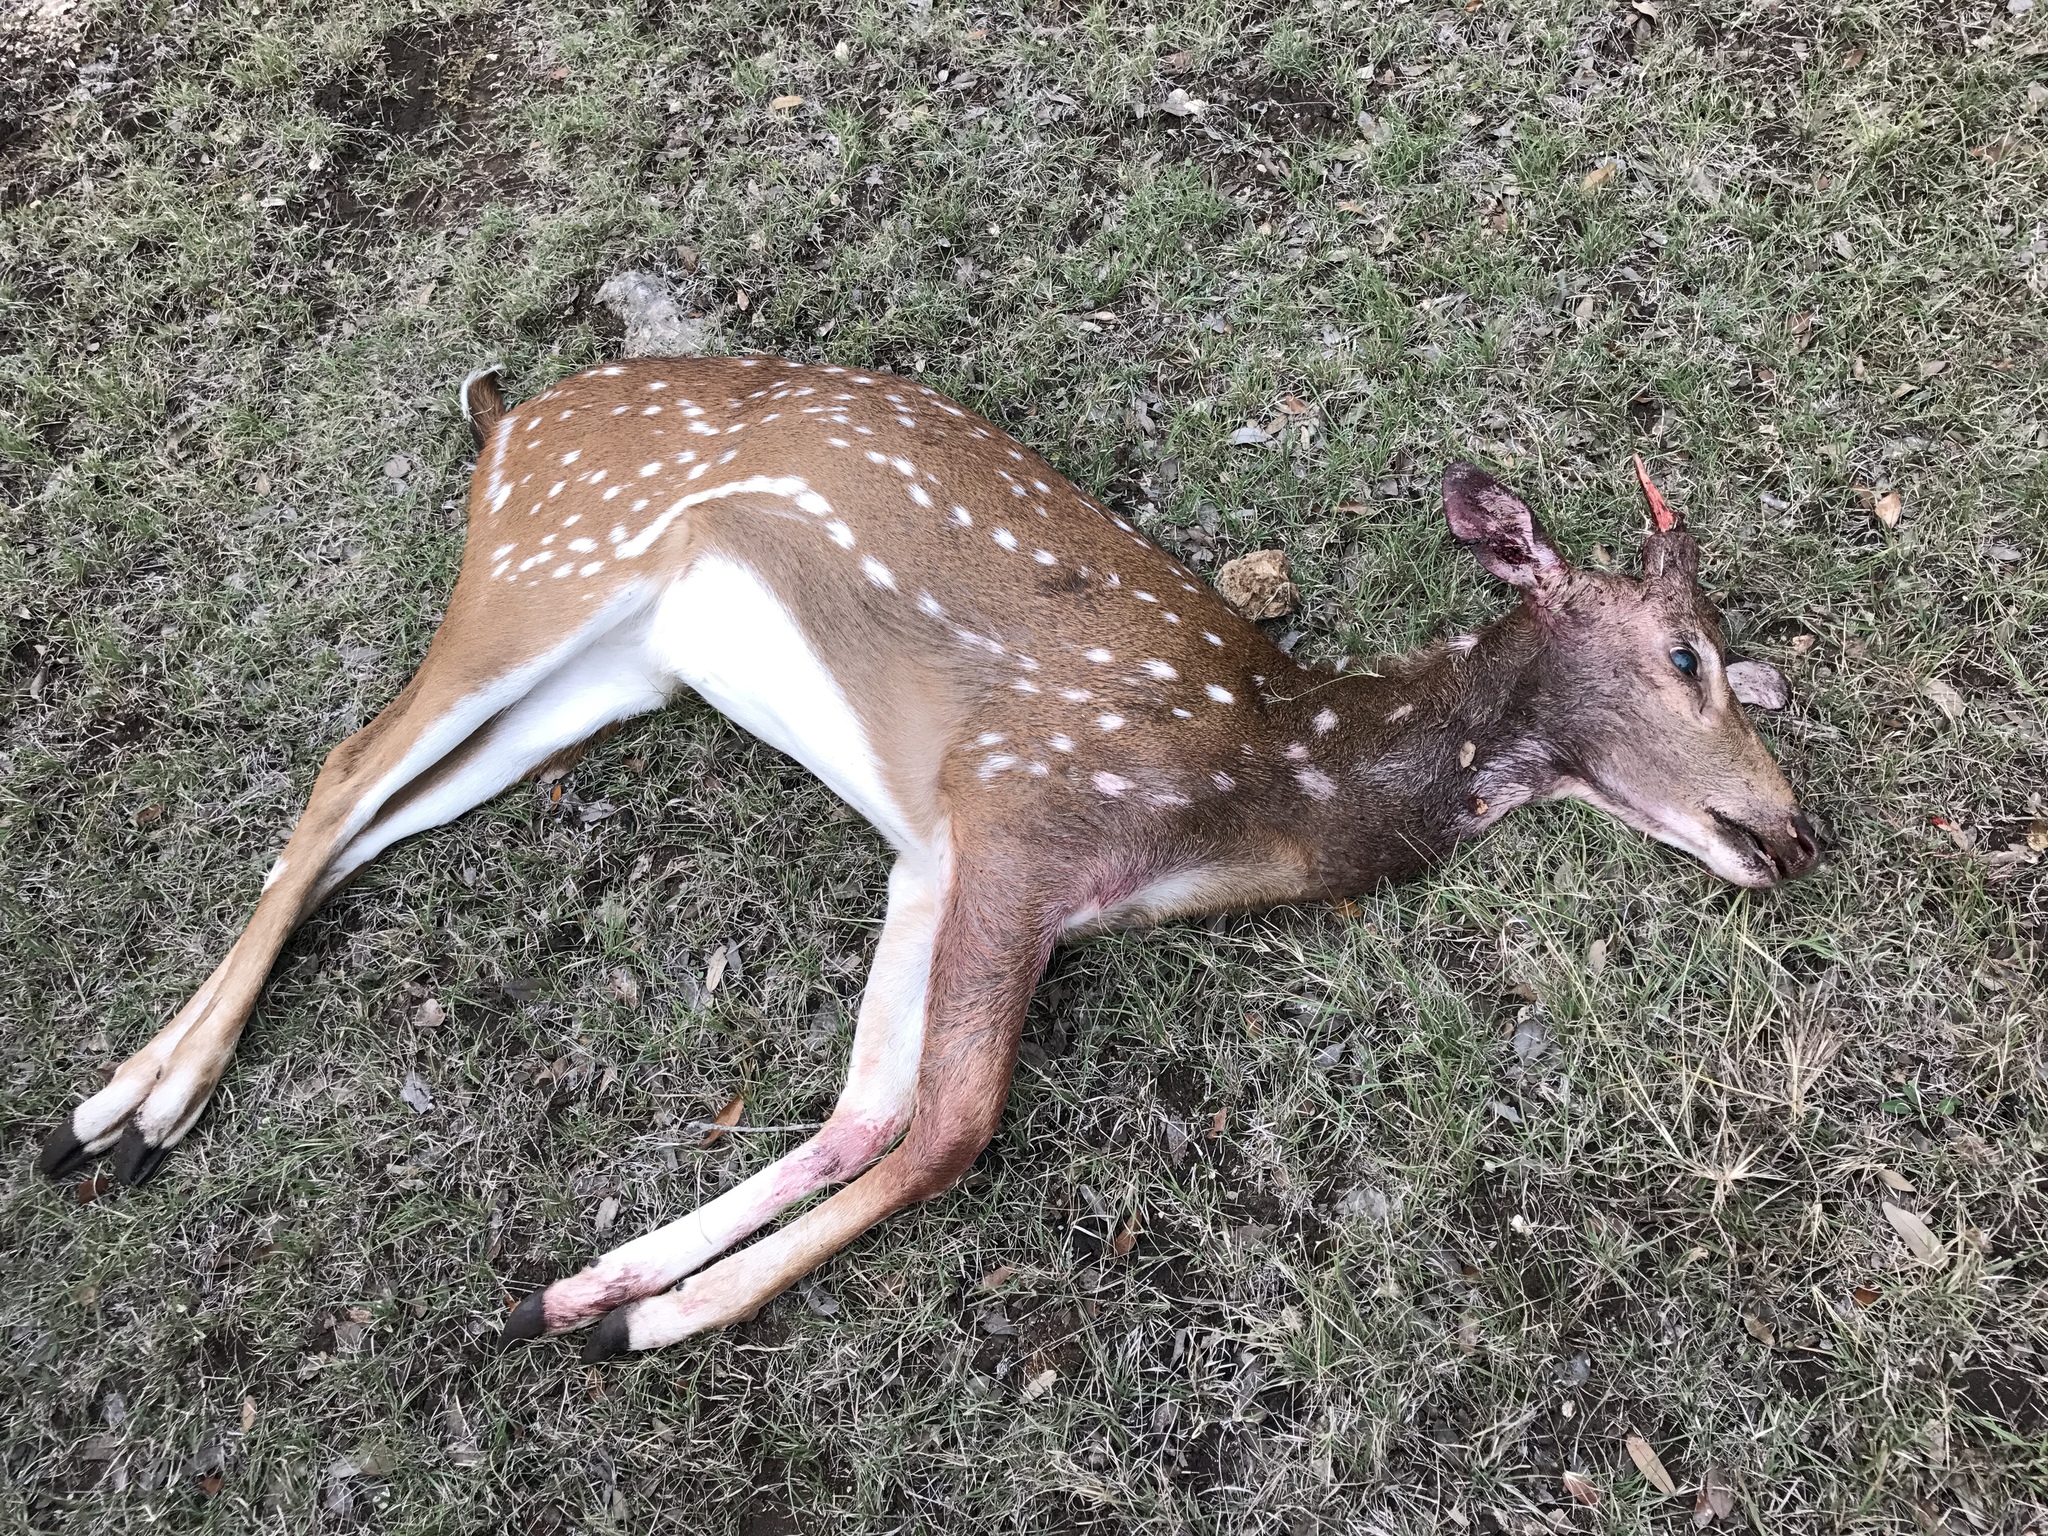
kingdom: Animalia
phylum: Chordata
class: Mammalia
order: Artiodactyla
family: Cervidae
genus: Axis
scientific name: Axis axis
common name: Chital
